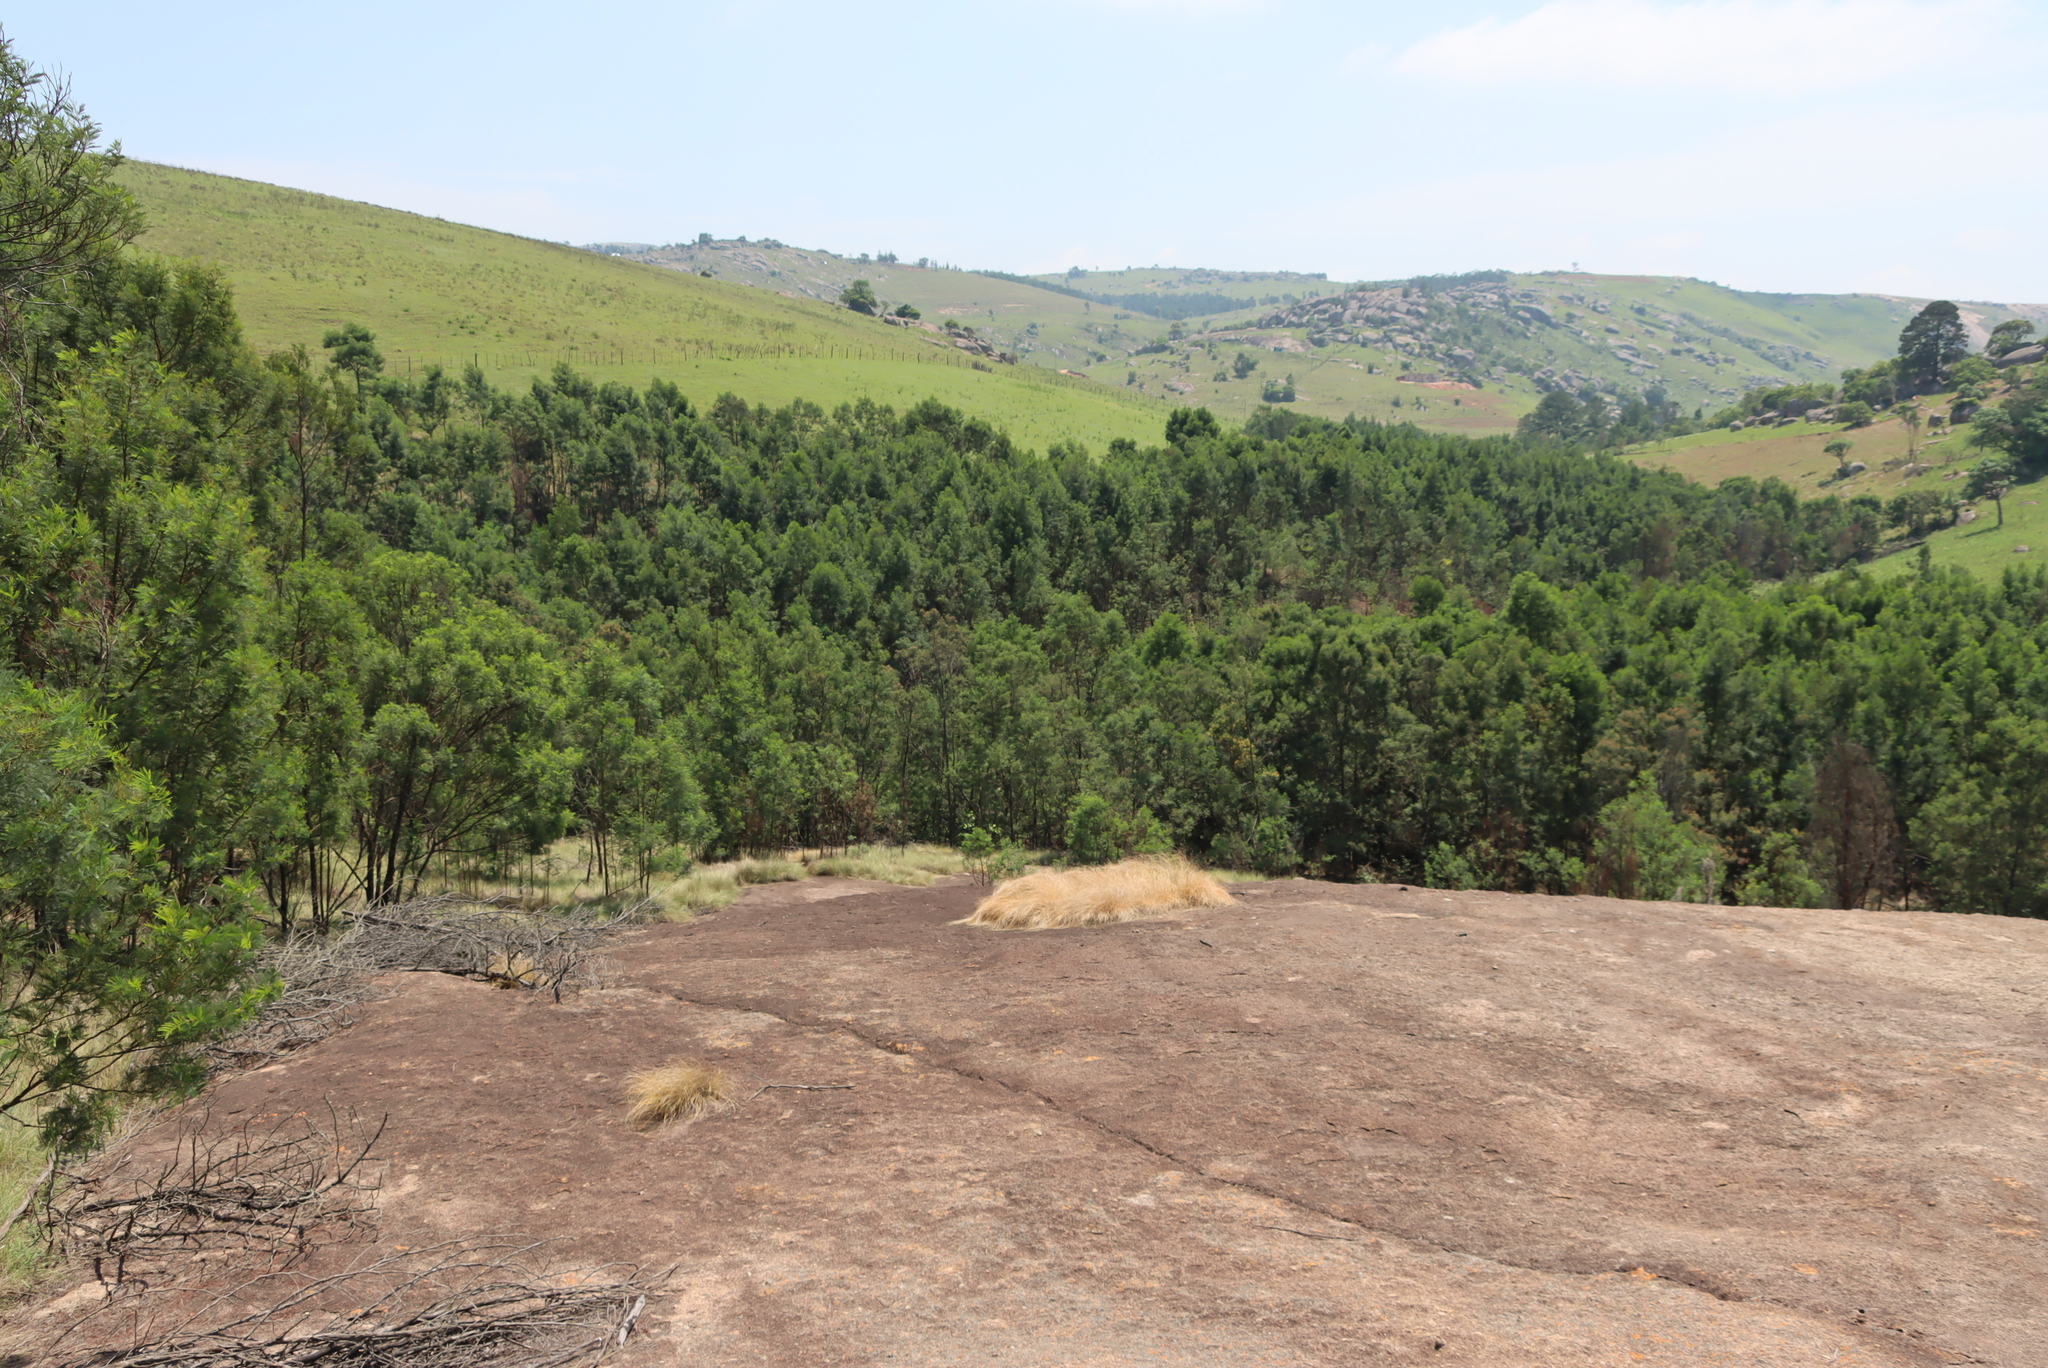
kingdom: Plantae
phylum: Tracheophyta
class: Magnoliopsida
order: Fabales
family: Fabaceae
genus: Acacia
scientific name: Acacia decurrens
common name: Green wattle
